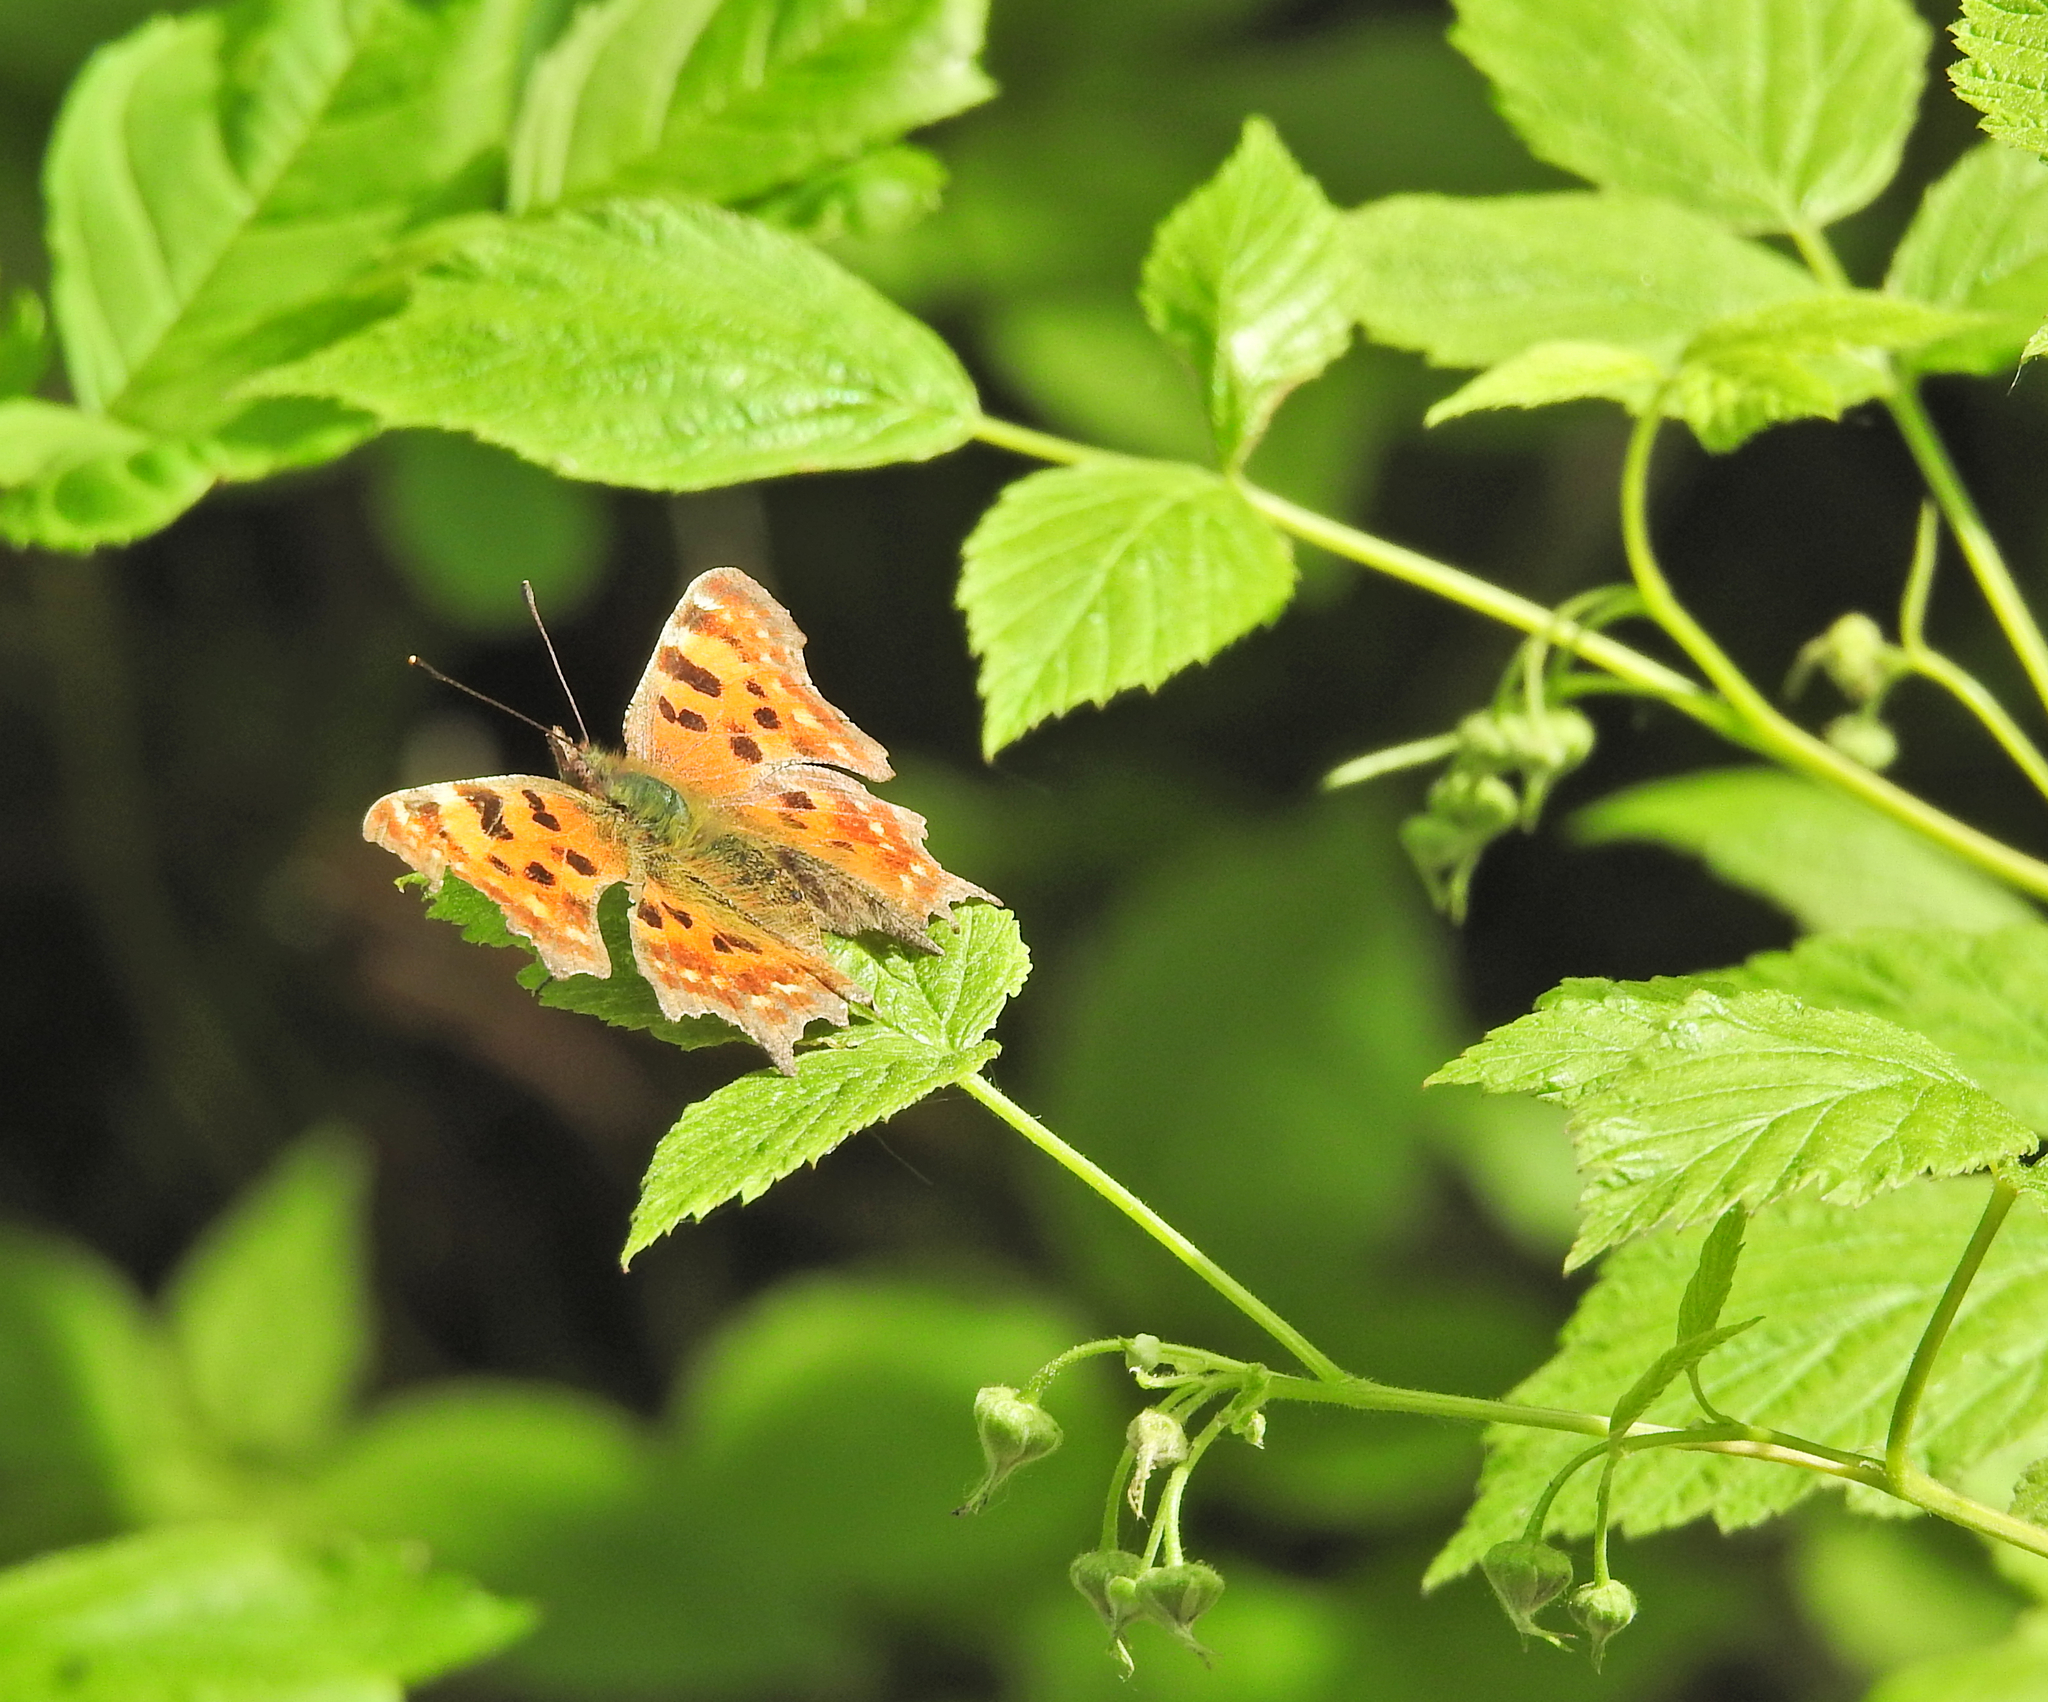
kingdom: Animalia
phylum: Arthropoda
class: Insecta
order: Lepidoptera
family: Nymphalidae
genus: Polygonia
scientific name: Polygonia c-album
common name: Comma
